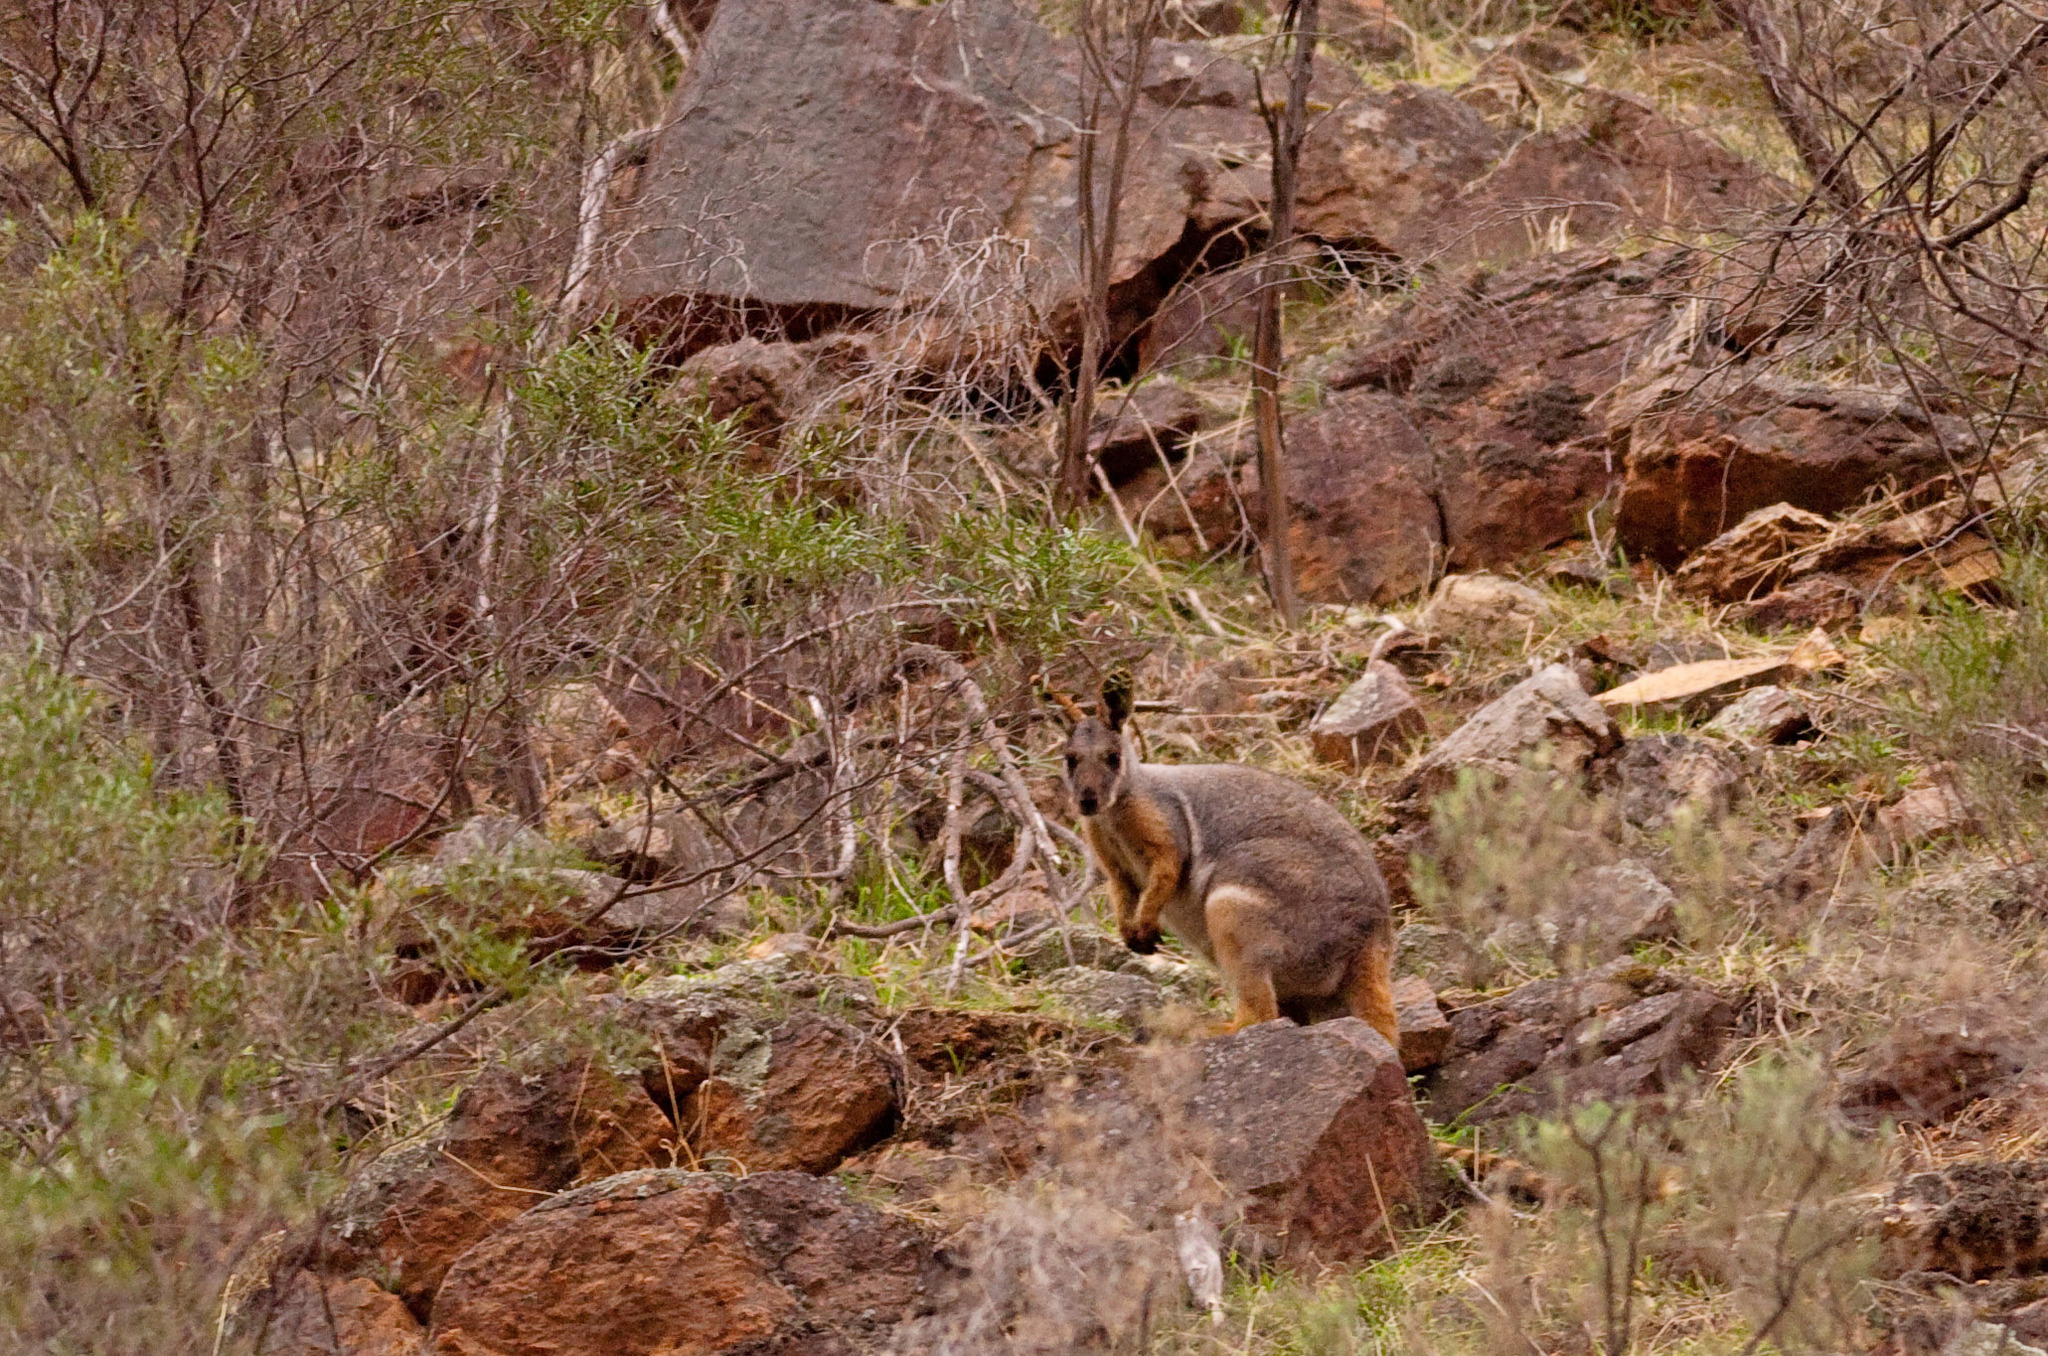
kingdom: Animalia
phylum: Chordata
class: Mammalia
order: Diprotodontia
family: Macropodidae
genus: Petrogale
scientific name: Petrogale xanthopus
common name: Yellow-footed rock-wallaby
